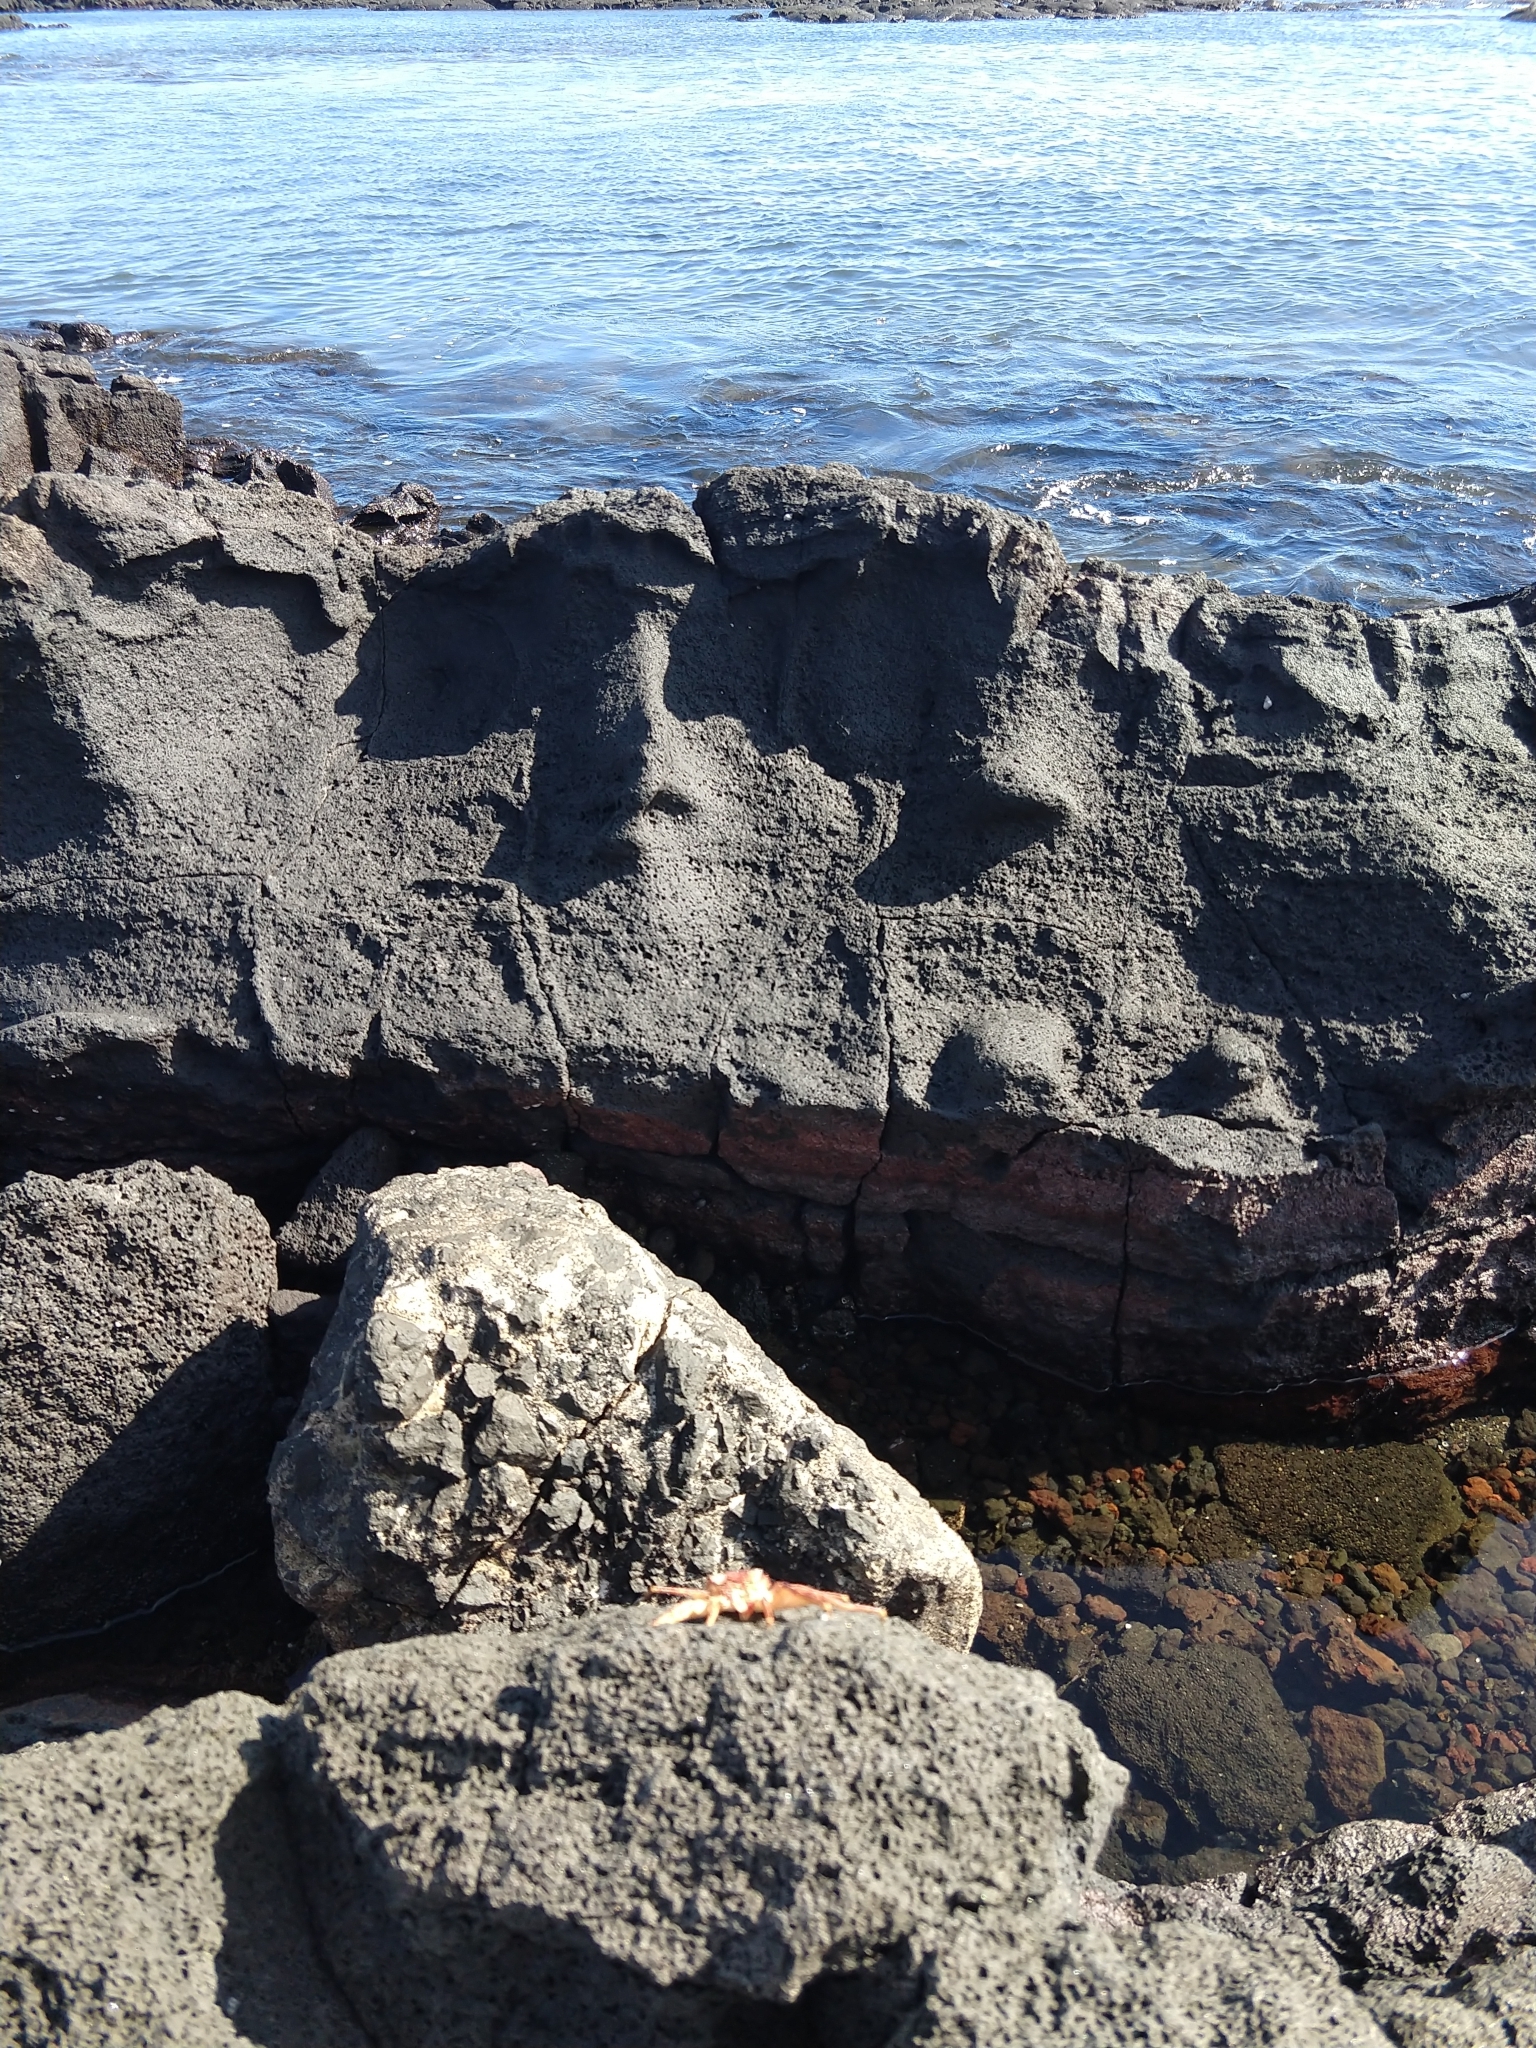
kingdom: Animalia
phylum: Arthropoda
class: Malacostraca
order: Decapoda
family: Grapsidae
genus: Grapsus
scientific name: Grapsus tenuicrustatus
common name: Natal lightfoot crab
